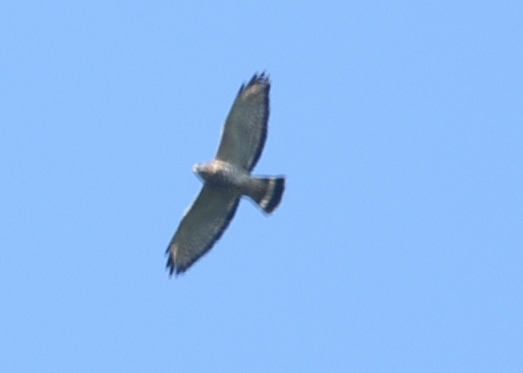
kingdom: Animalia
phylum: Chordata
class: Aves
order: Accipitriformes
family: Accipitridae
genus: Buteo
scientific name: Buteo platypterus
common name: Broad-winged hawk
